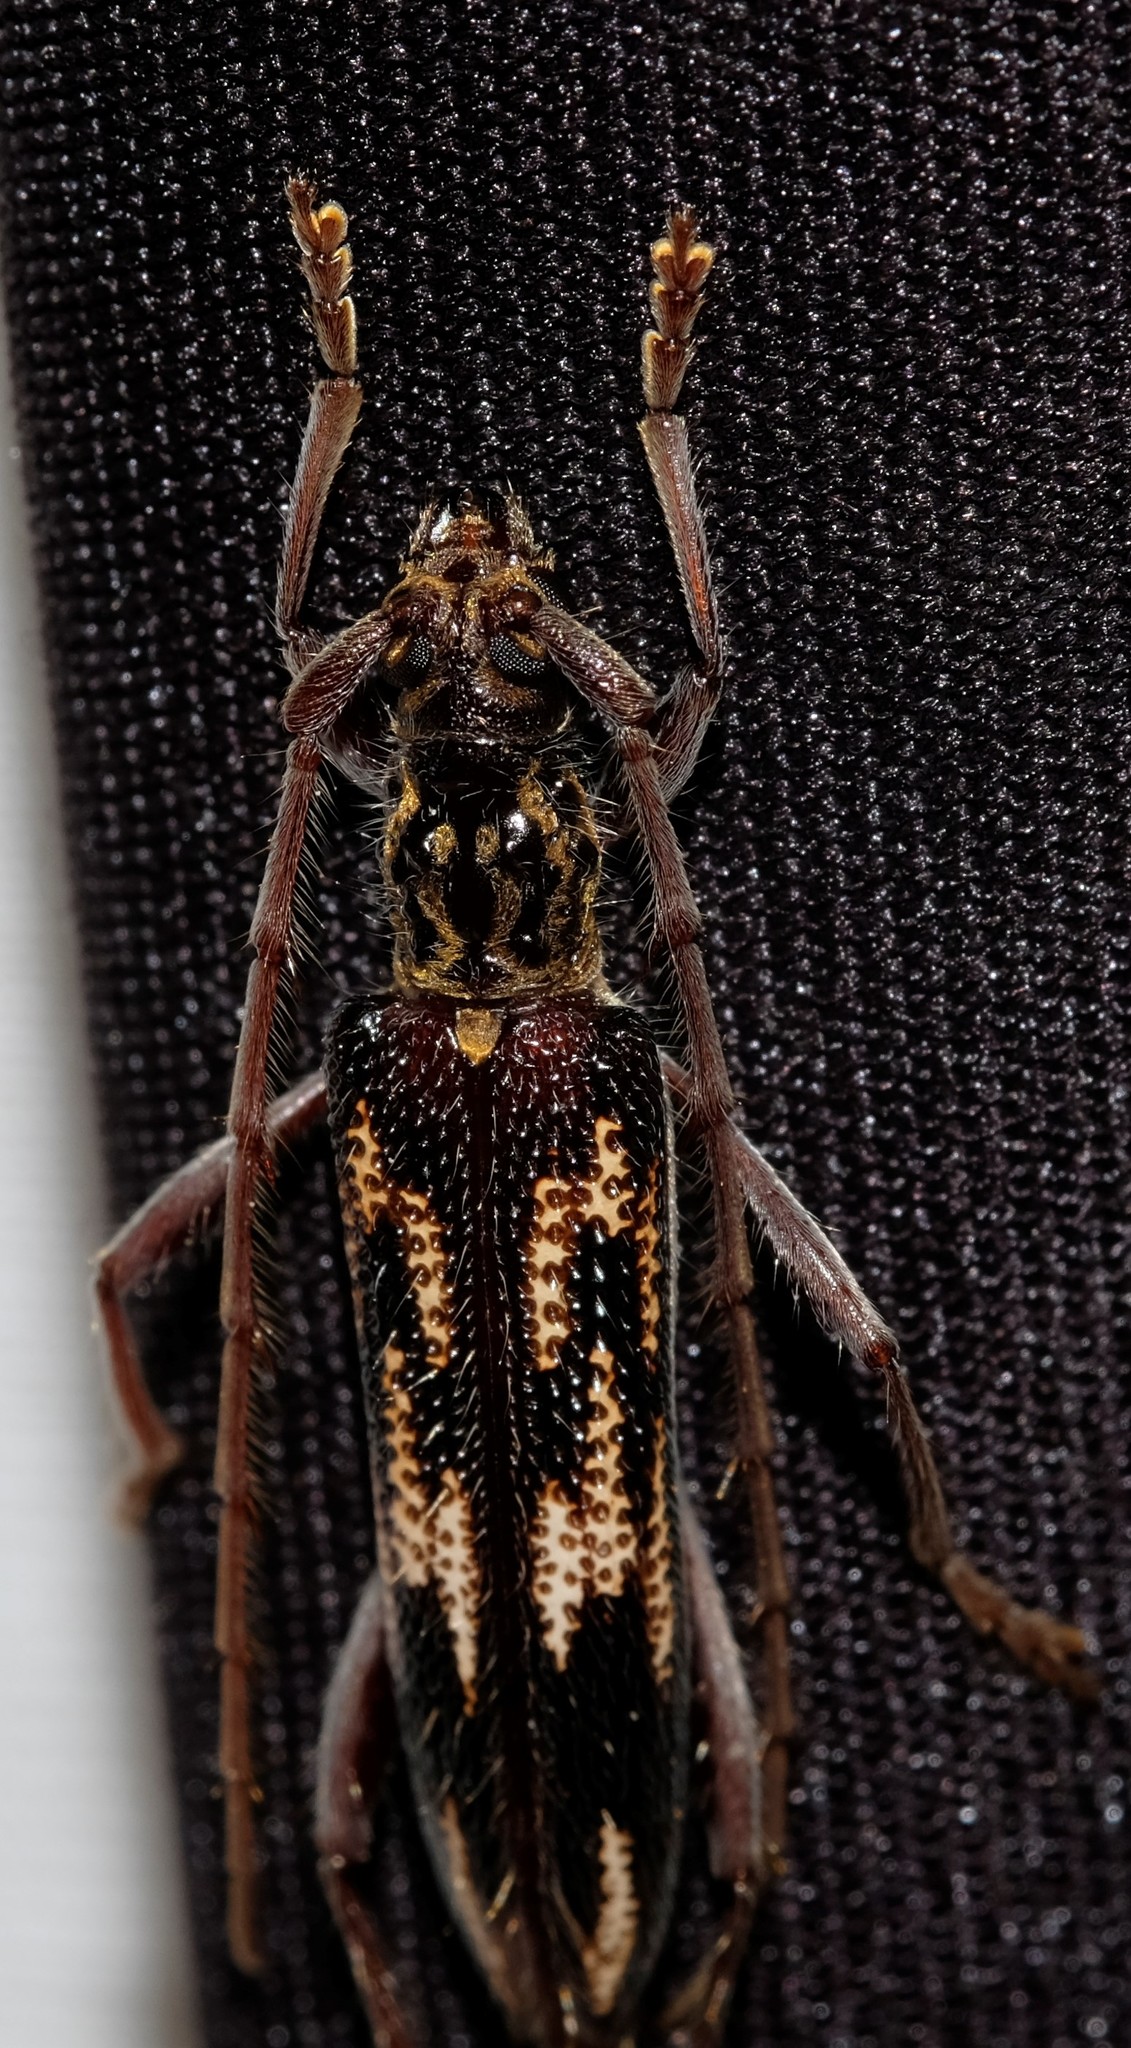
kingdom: Animalia
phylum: Arthropoda
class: Insecta
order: Coleoptera
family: Cerambycidae
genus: Coptocercus
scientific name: Coptocercus rubripes
